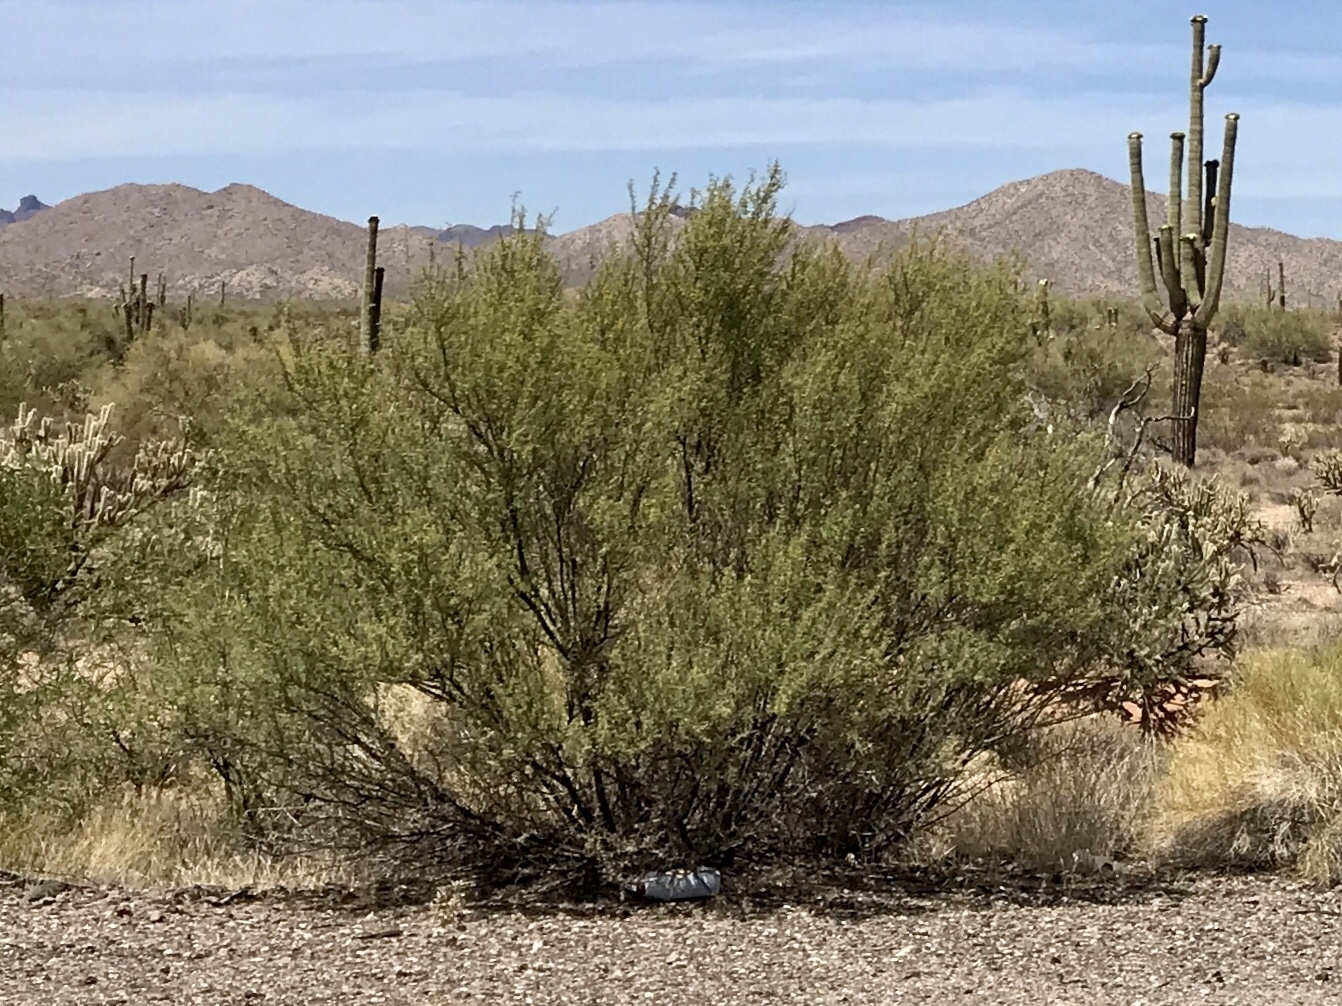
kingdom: Plantae
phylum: Tracheophyta
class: Magnoliopsida
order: Fabales
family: Fabaceae
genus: Parkinsonia
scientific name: Parkinsonia microphylla
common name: Yellow paloverde
